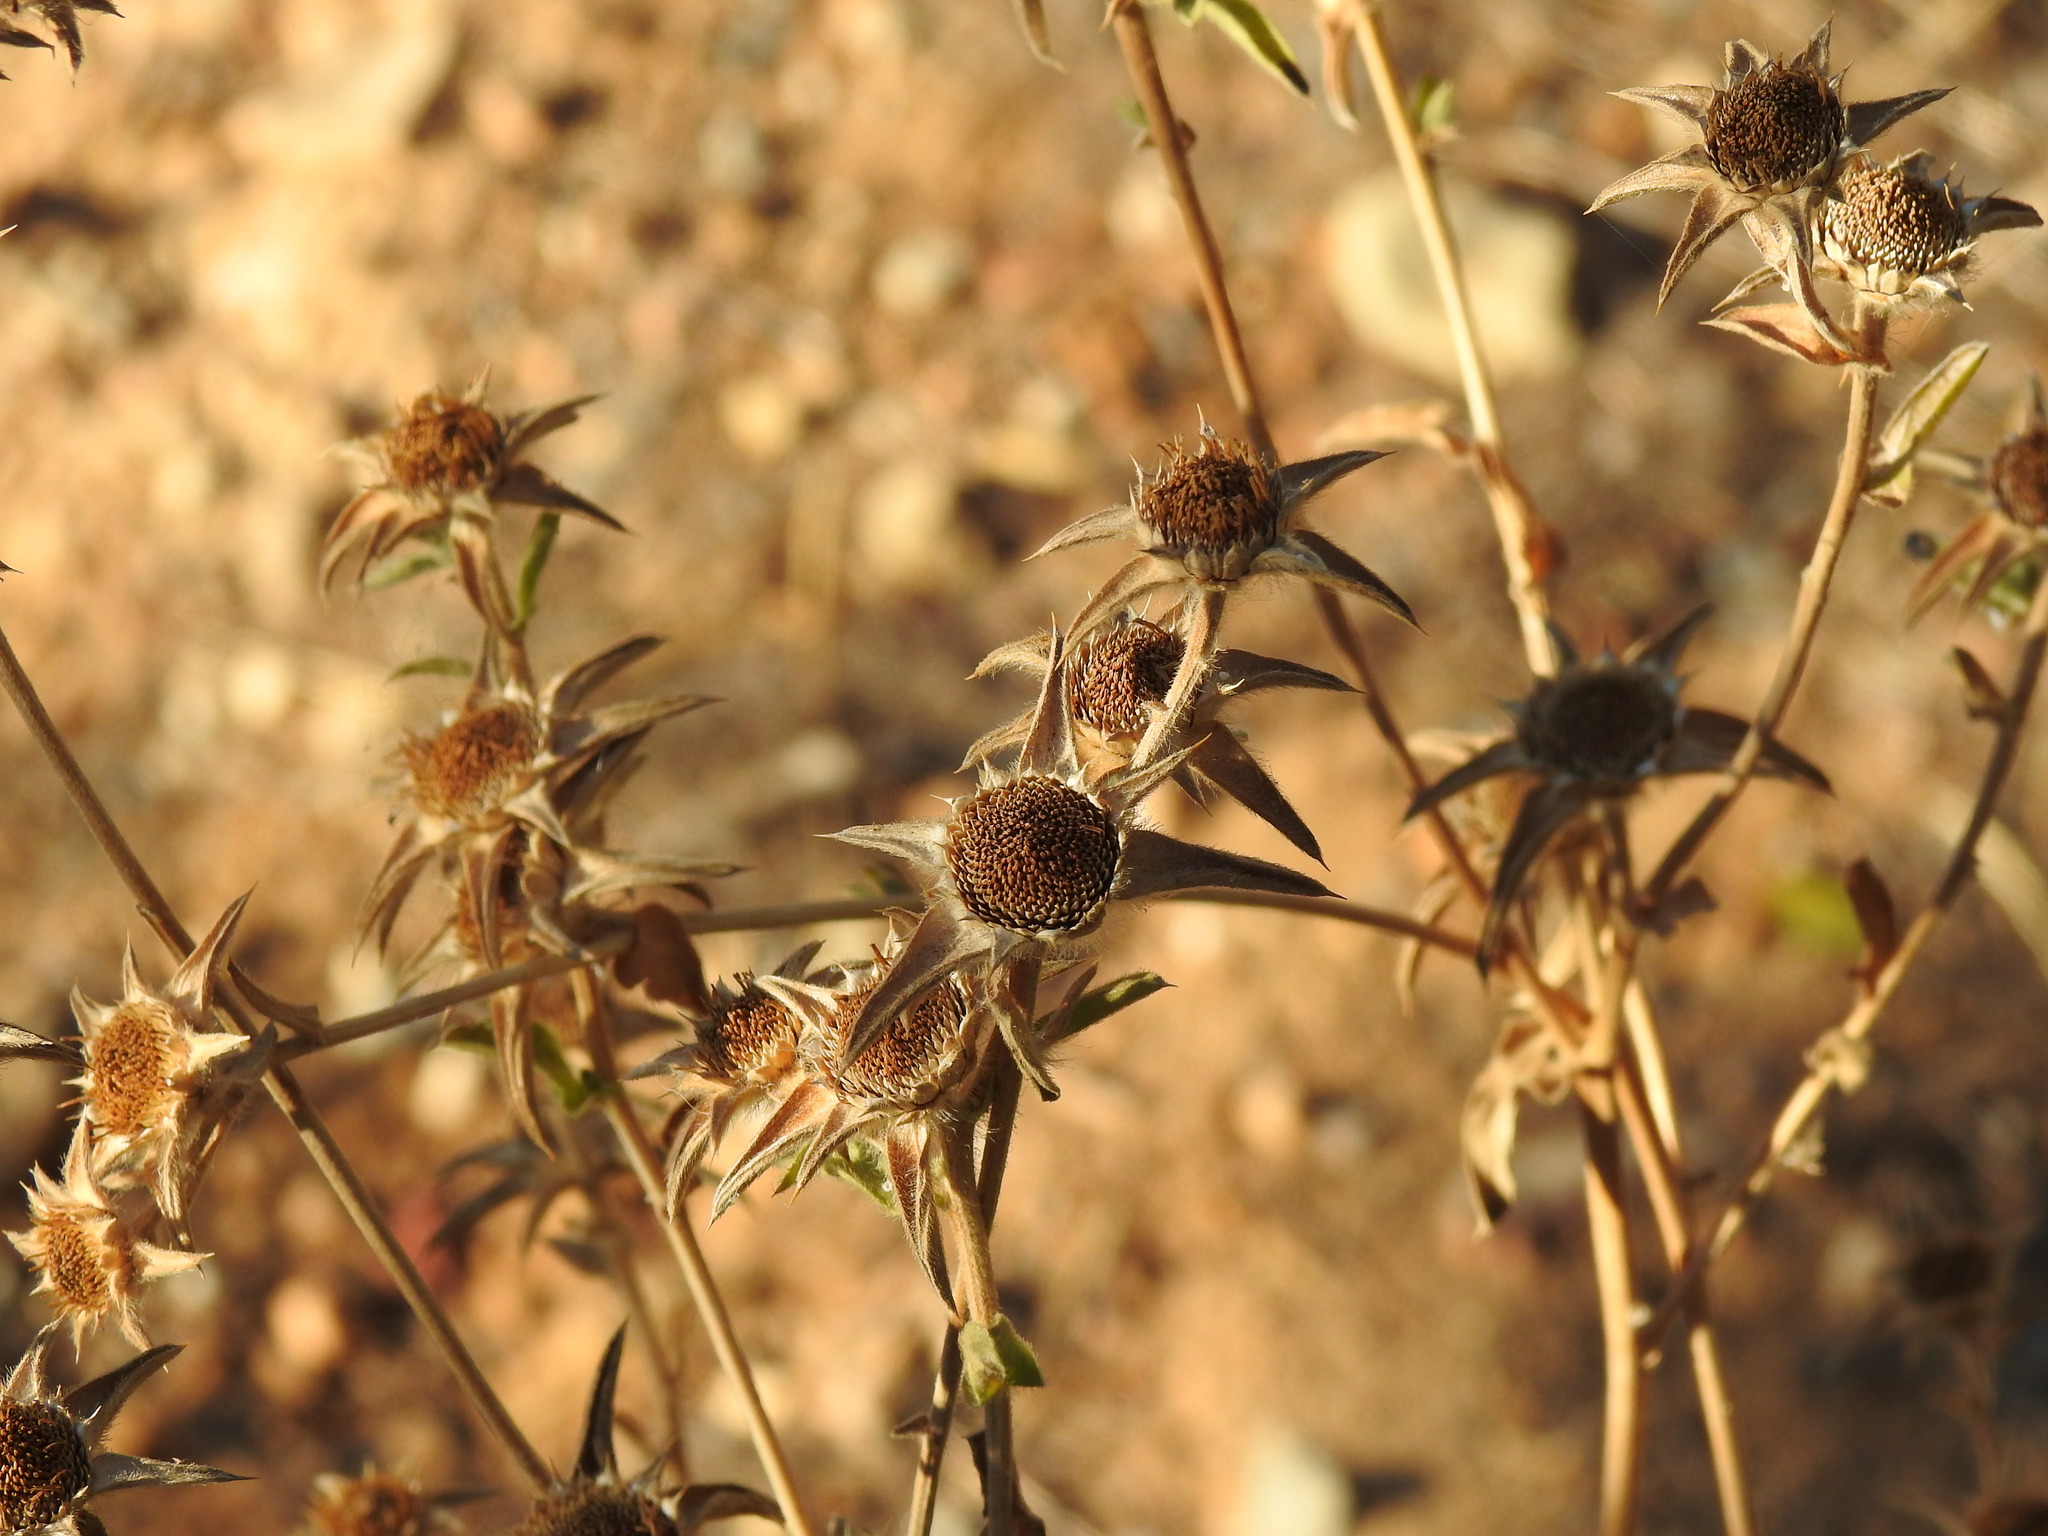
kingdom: Plantae
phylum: Tracheophyta
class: Magnoliopsida
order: Asterales
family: Asteraceae
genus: Pallenis
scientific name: Pallenis spinosa
